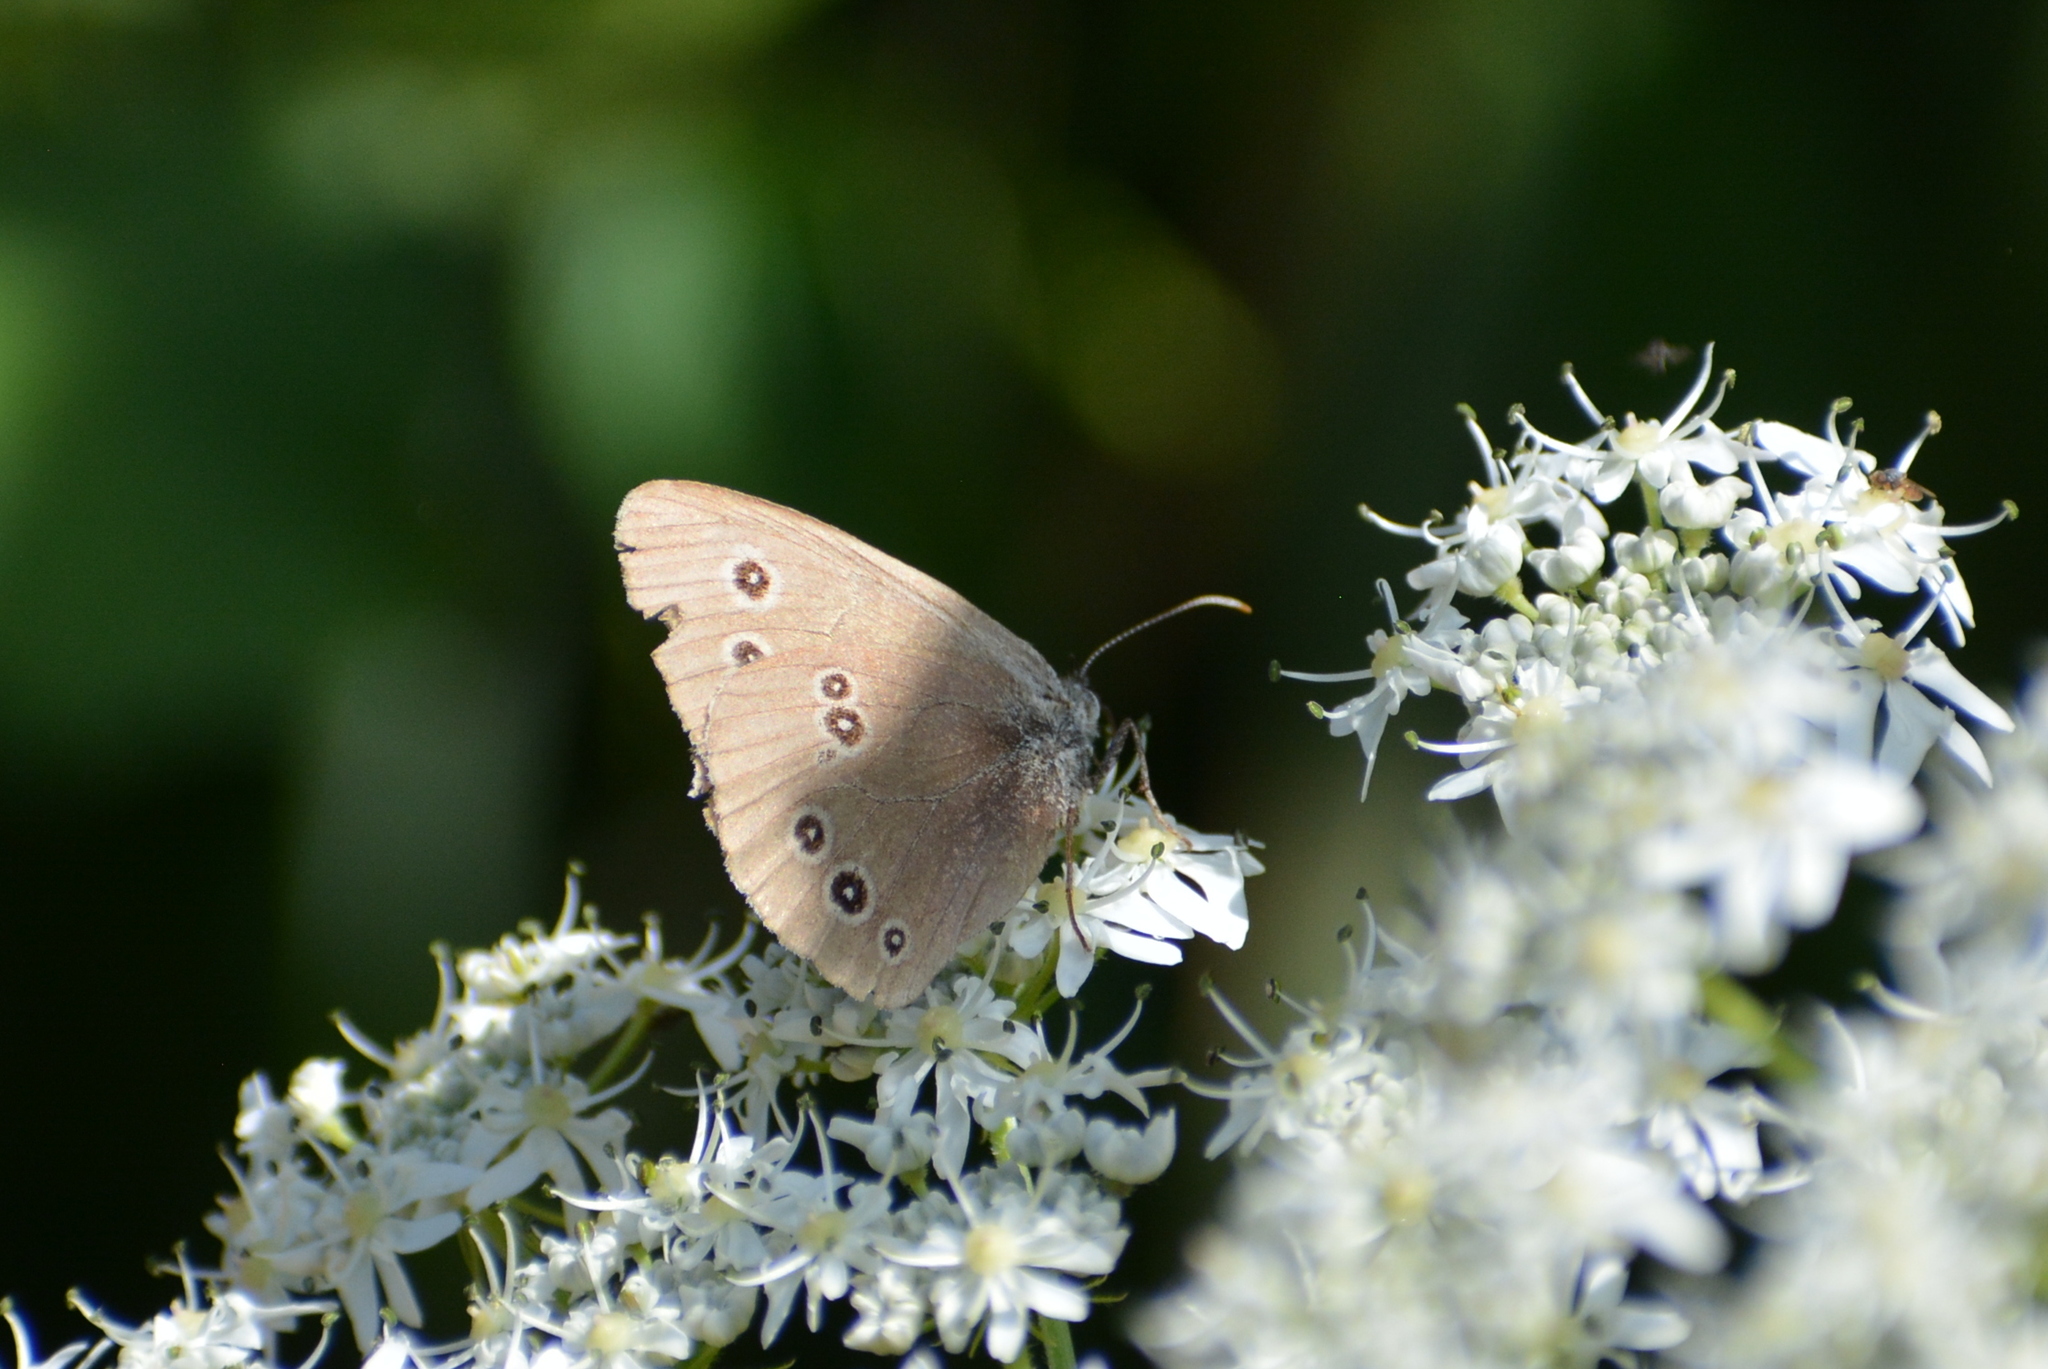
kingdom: Animalia
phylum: Arthropoda
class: Insecta
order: Lepidoptera
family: Nymphalidae
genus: Aphantopus
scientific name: Aphantopus hyperantus
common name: Ringlet
